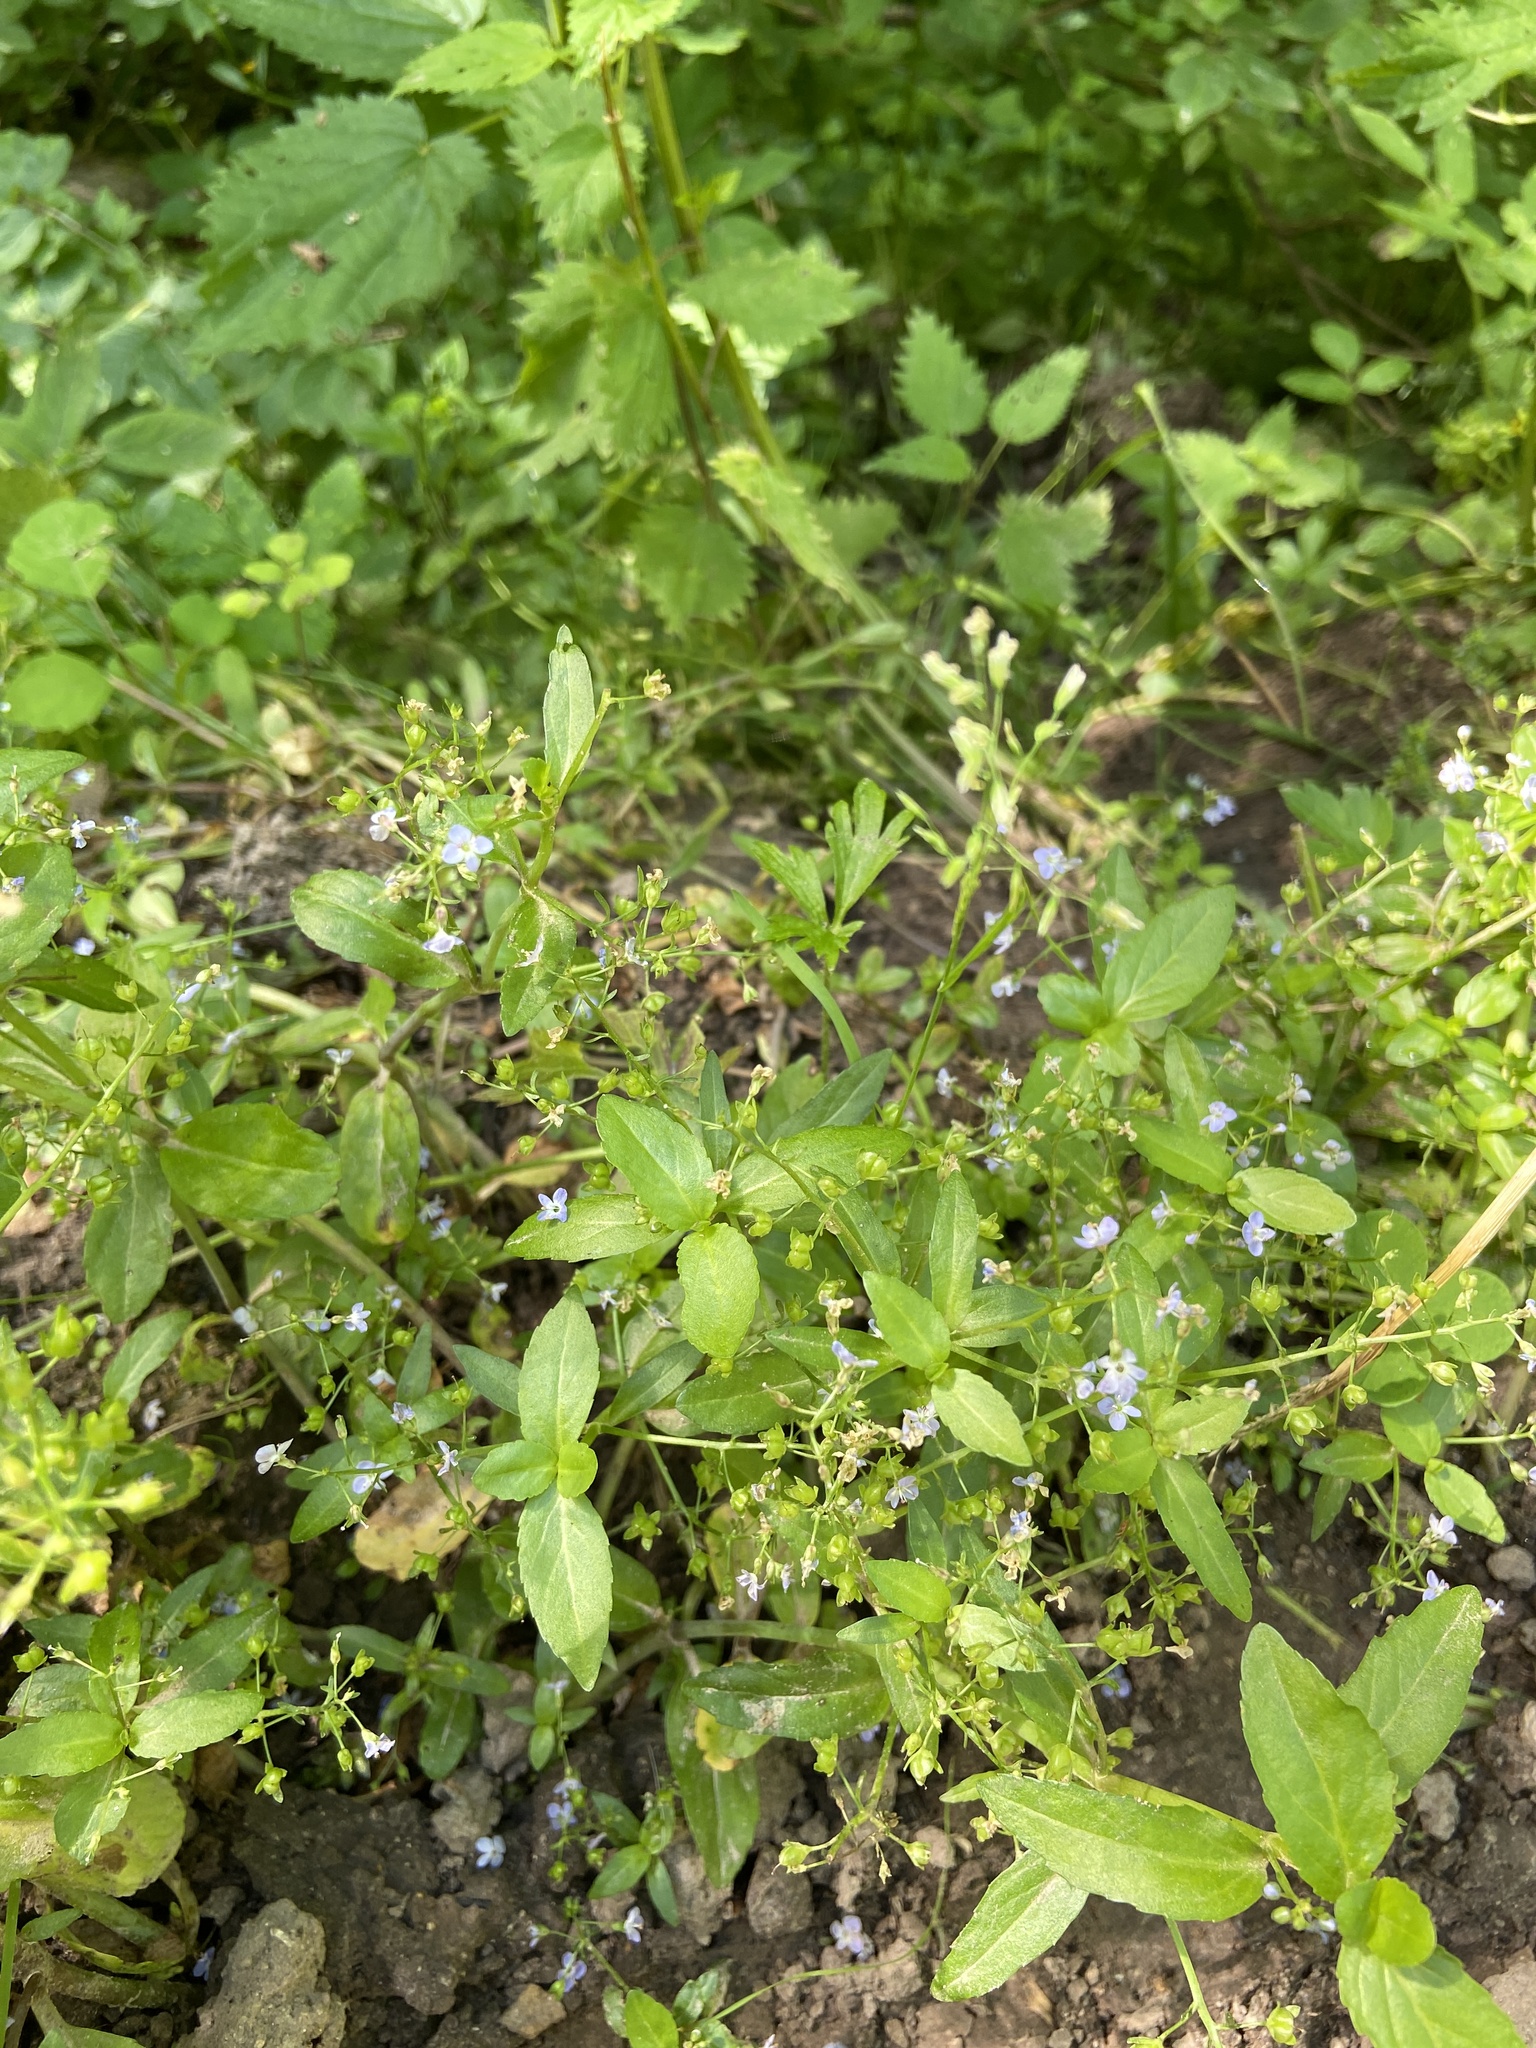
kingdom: Plantae
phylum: Tracheophyta
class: Magnoliopsida
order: Lamiales
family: Plantaginaceae
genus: Veronica
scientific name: Veronica beccabunga
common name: Brooklime
